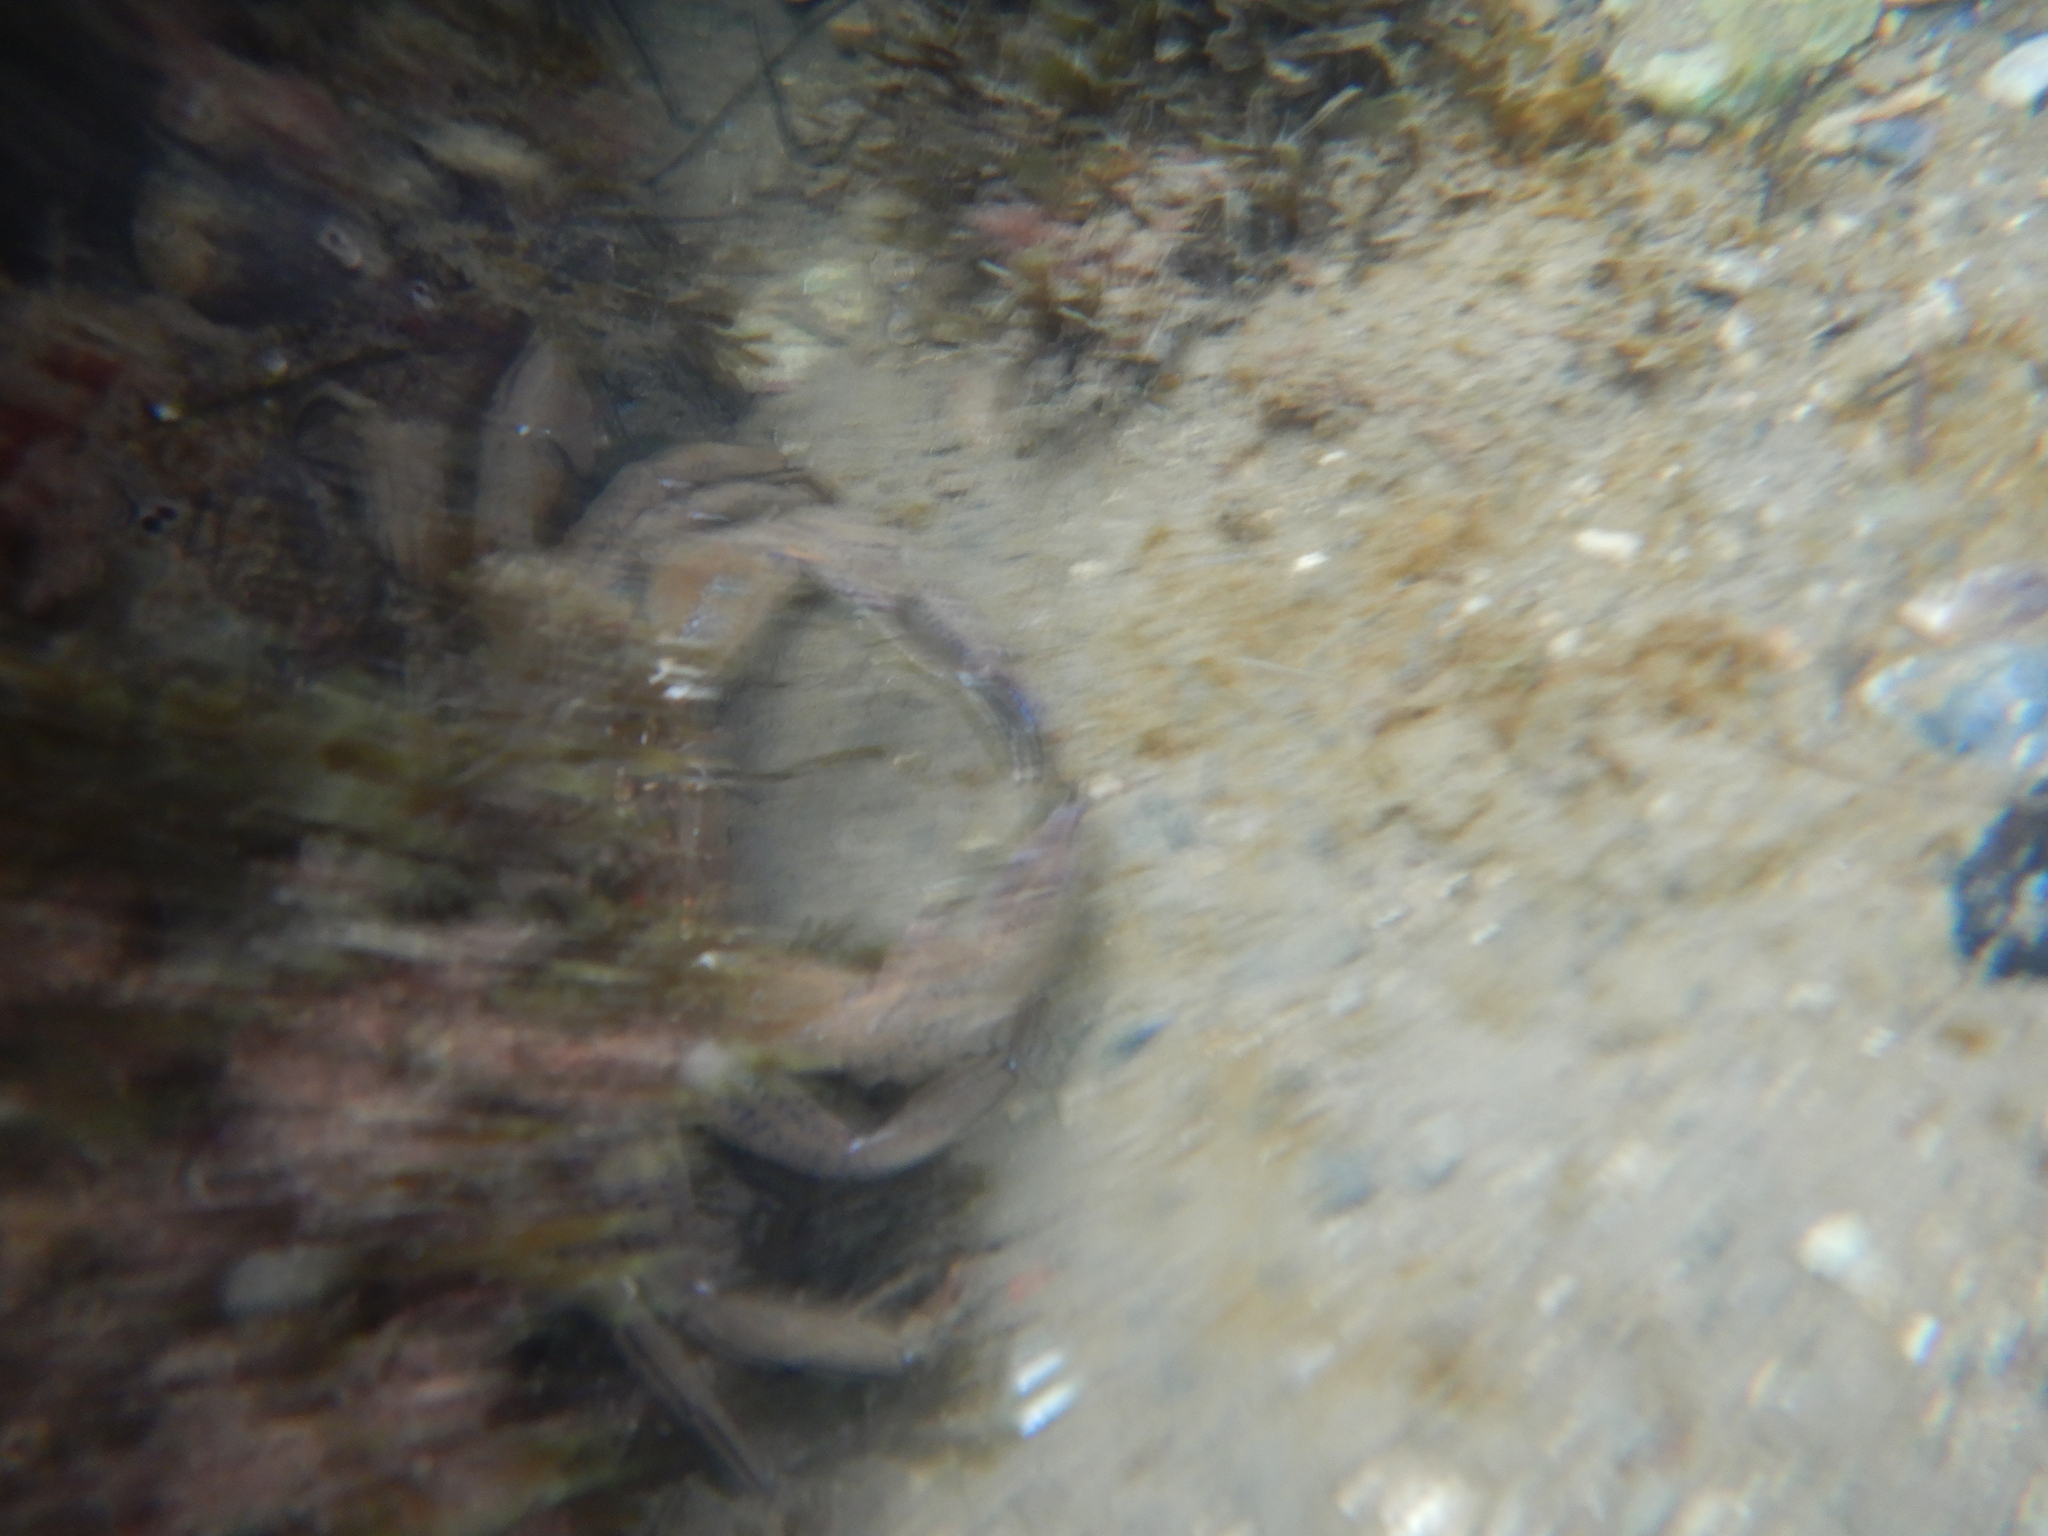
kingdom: Animalia
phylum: Arthropoda
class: Malacostraca
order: Decapoda
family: Polybiidae
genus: Necora
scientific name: Necora puber
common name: Velvet swimming crab
